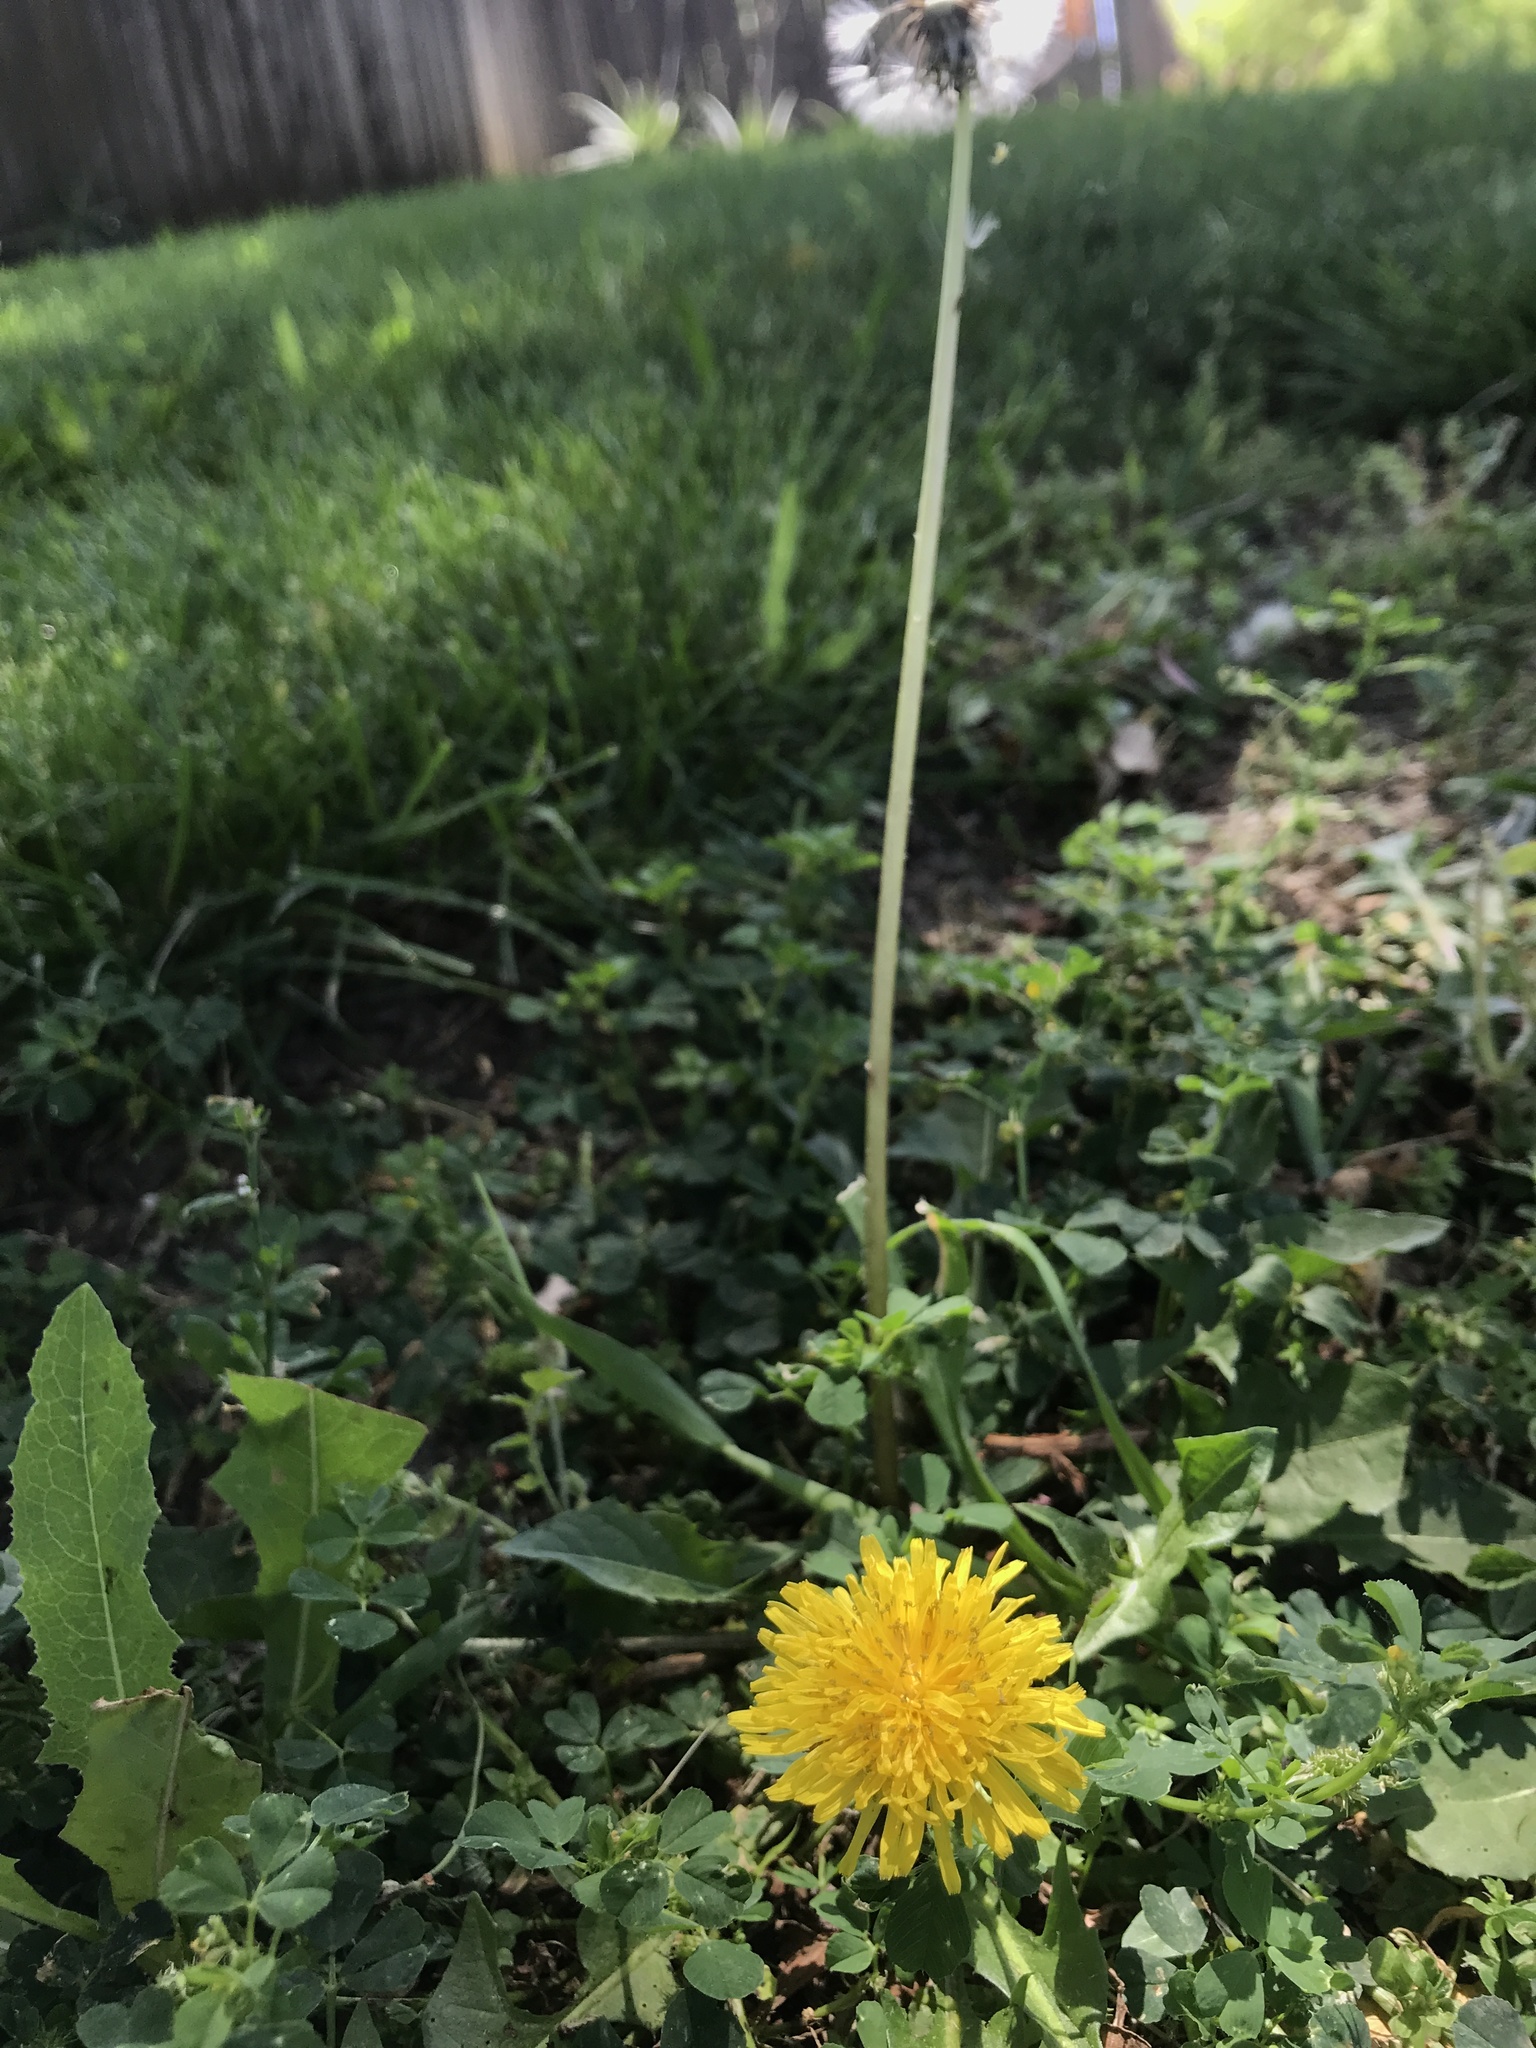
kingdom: Plantae
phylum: Tracheophyta
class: Magnoliopsida
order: Asterales
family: Asteraceae
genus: Taraxacum
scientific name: Taraxacum officinale
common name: Common dandelion
